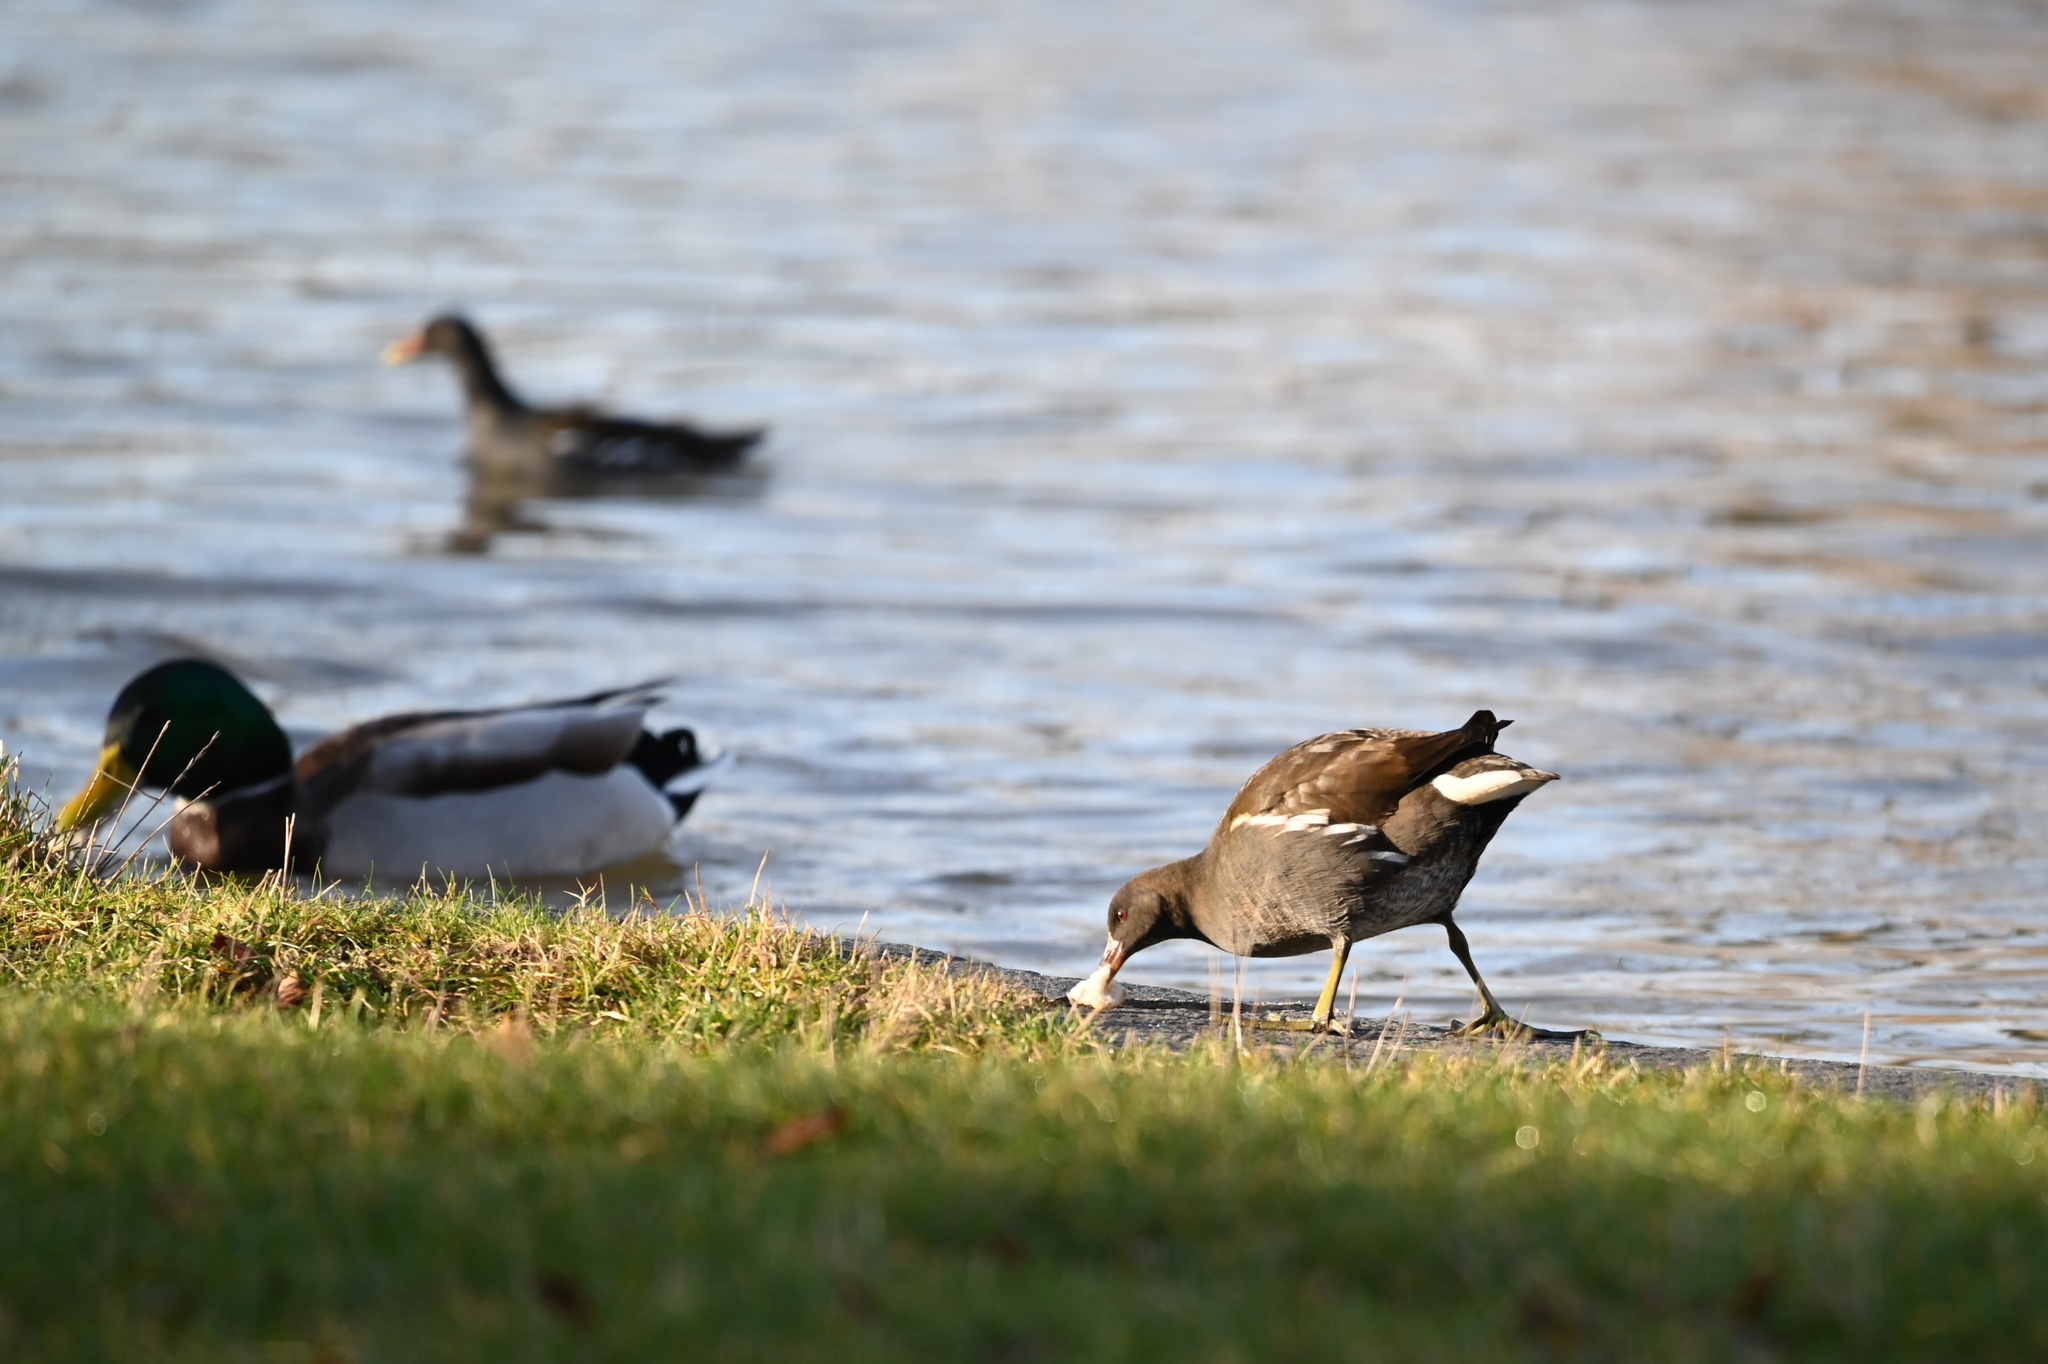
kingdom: Animalia
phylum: Chordata
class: Aves
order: Gruiformes
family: Rallidae
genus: Gallinula
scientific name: Gallinula chloropus
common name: Common moorhen
